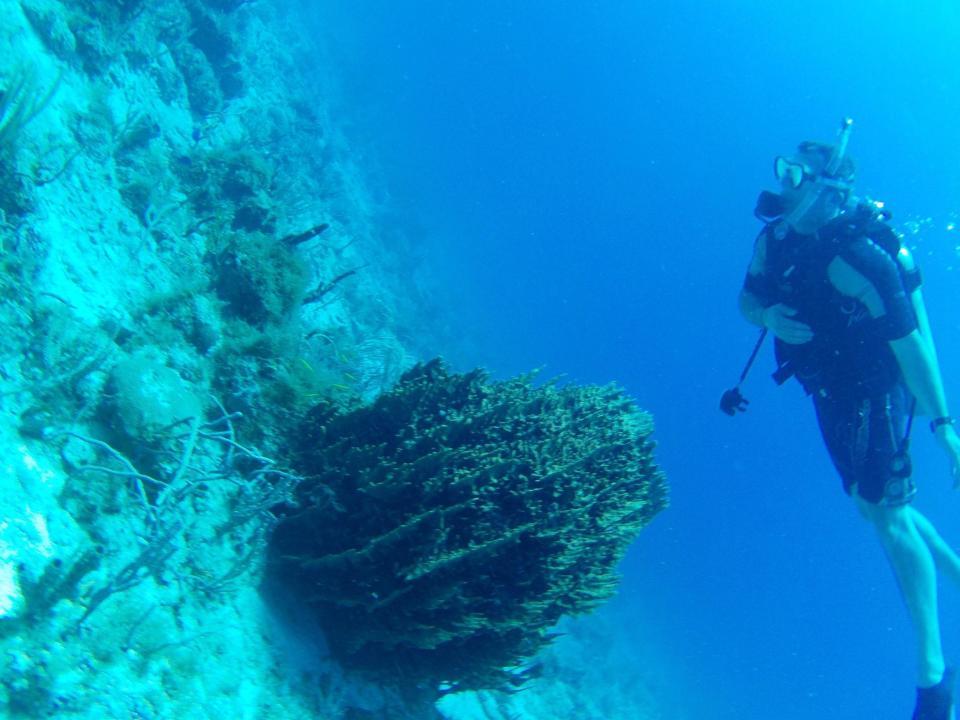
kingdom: Animalia
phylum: Porifera
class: Demospongiae
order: Haplosclerida
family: Petrosiidae
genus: Xestospongia
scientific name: Xestospongia muta
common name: Giant barrel sponge
